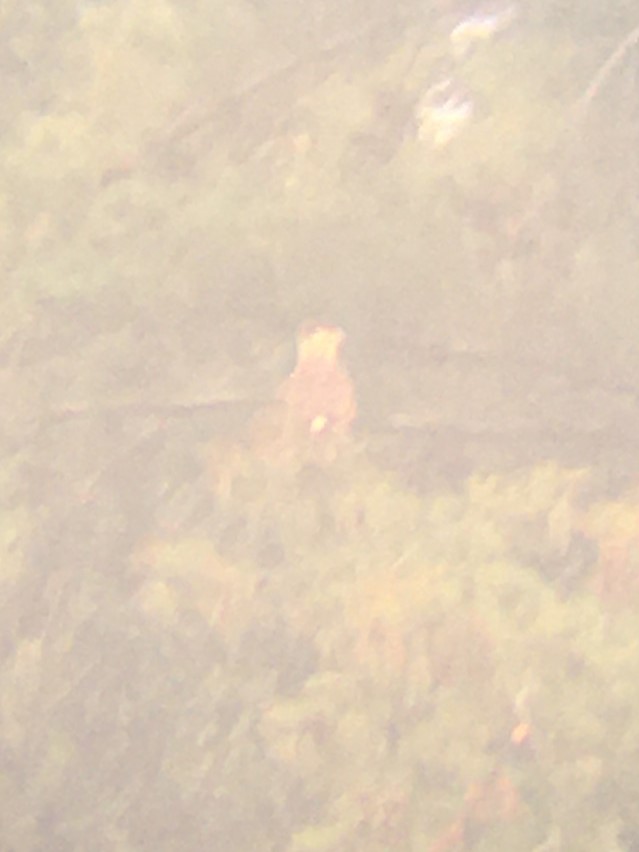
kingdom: Animalia
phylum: Chordata
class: Aves
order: Falconiformes
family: Falconidae
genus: Caracara
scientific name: Caracara plancus
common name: Southern caracara
